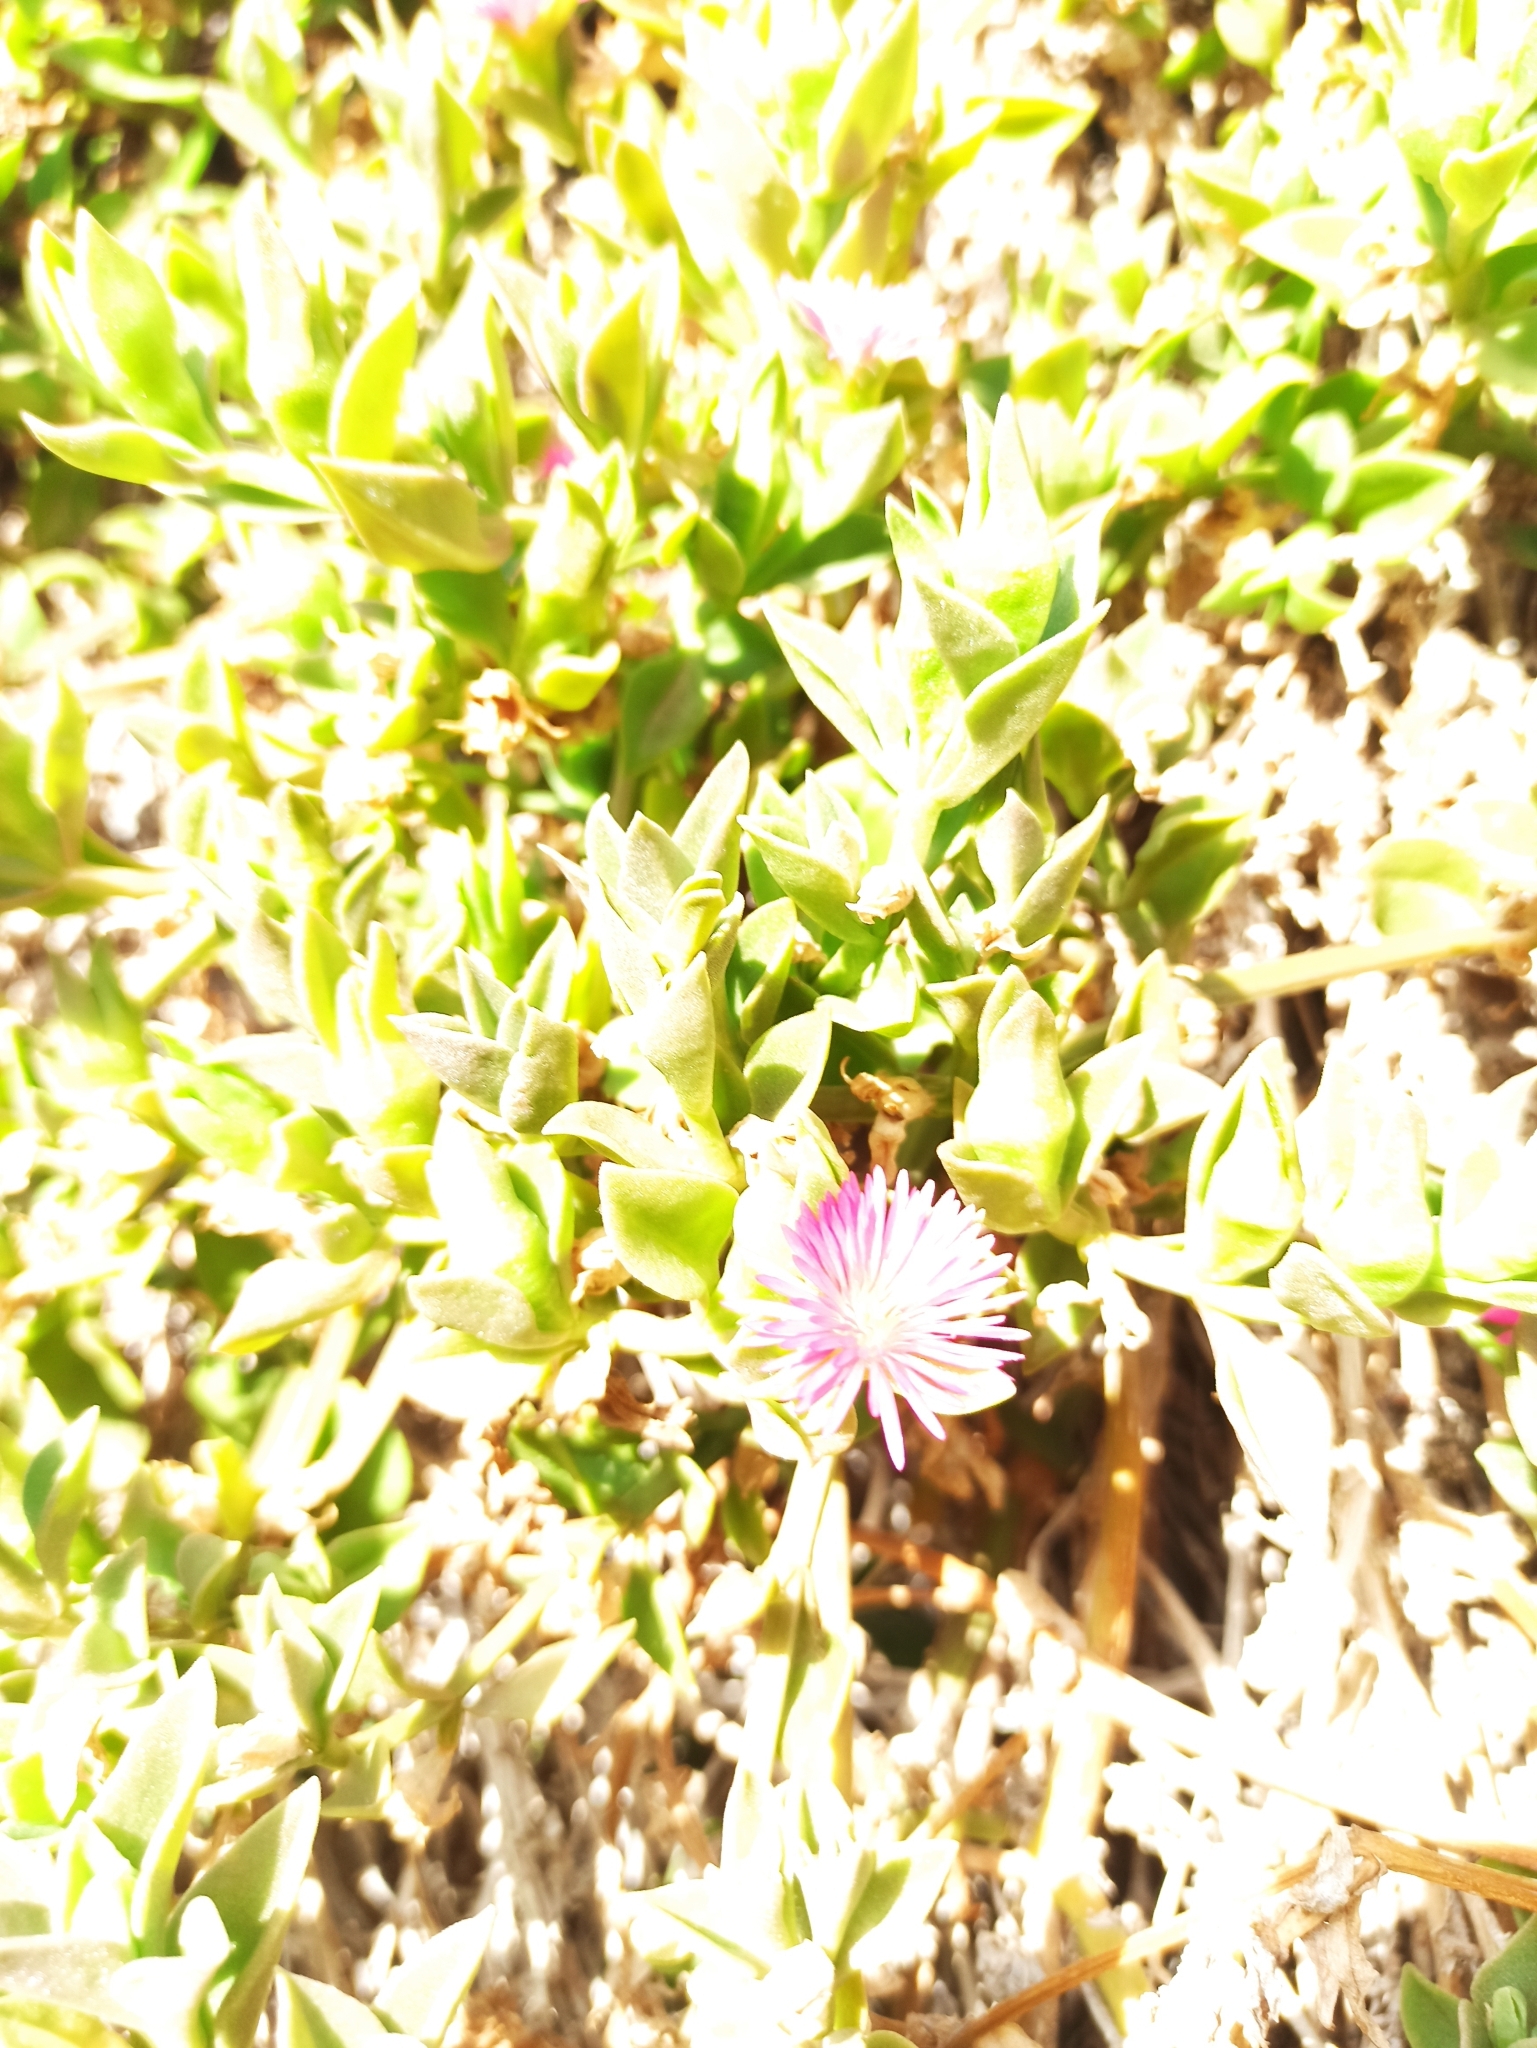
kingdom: Plantae
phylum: Tracheophyta
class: Magnoliopsida
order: Caryophyllales
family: Aizoaceae
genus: Mesembryanthemum
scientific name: Mesembryanthemum cordifolium
